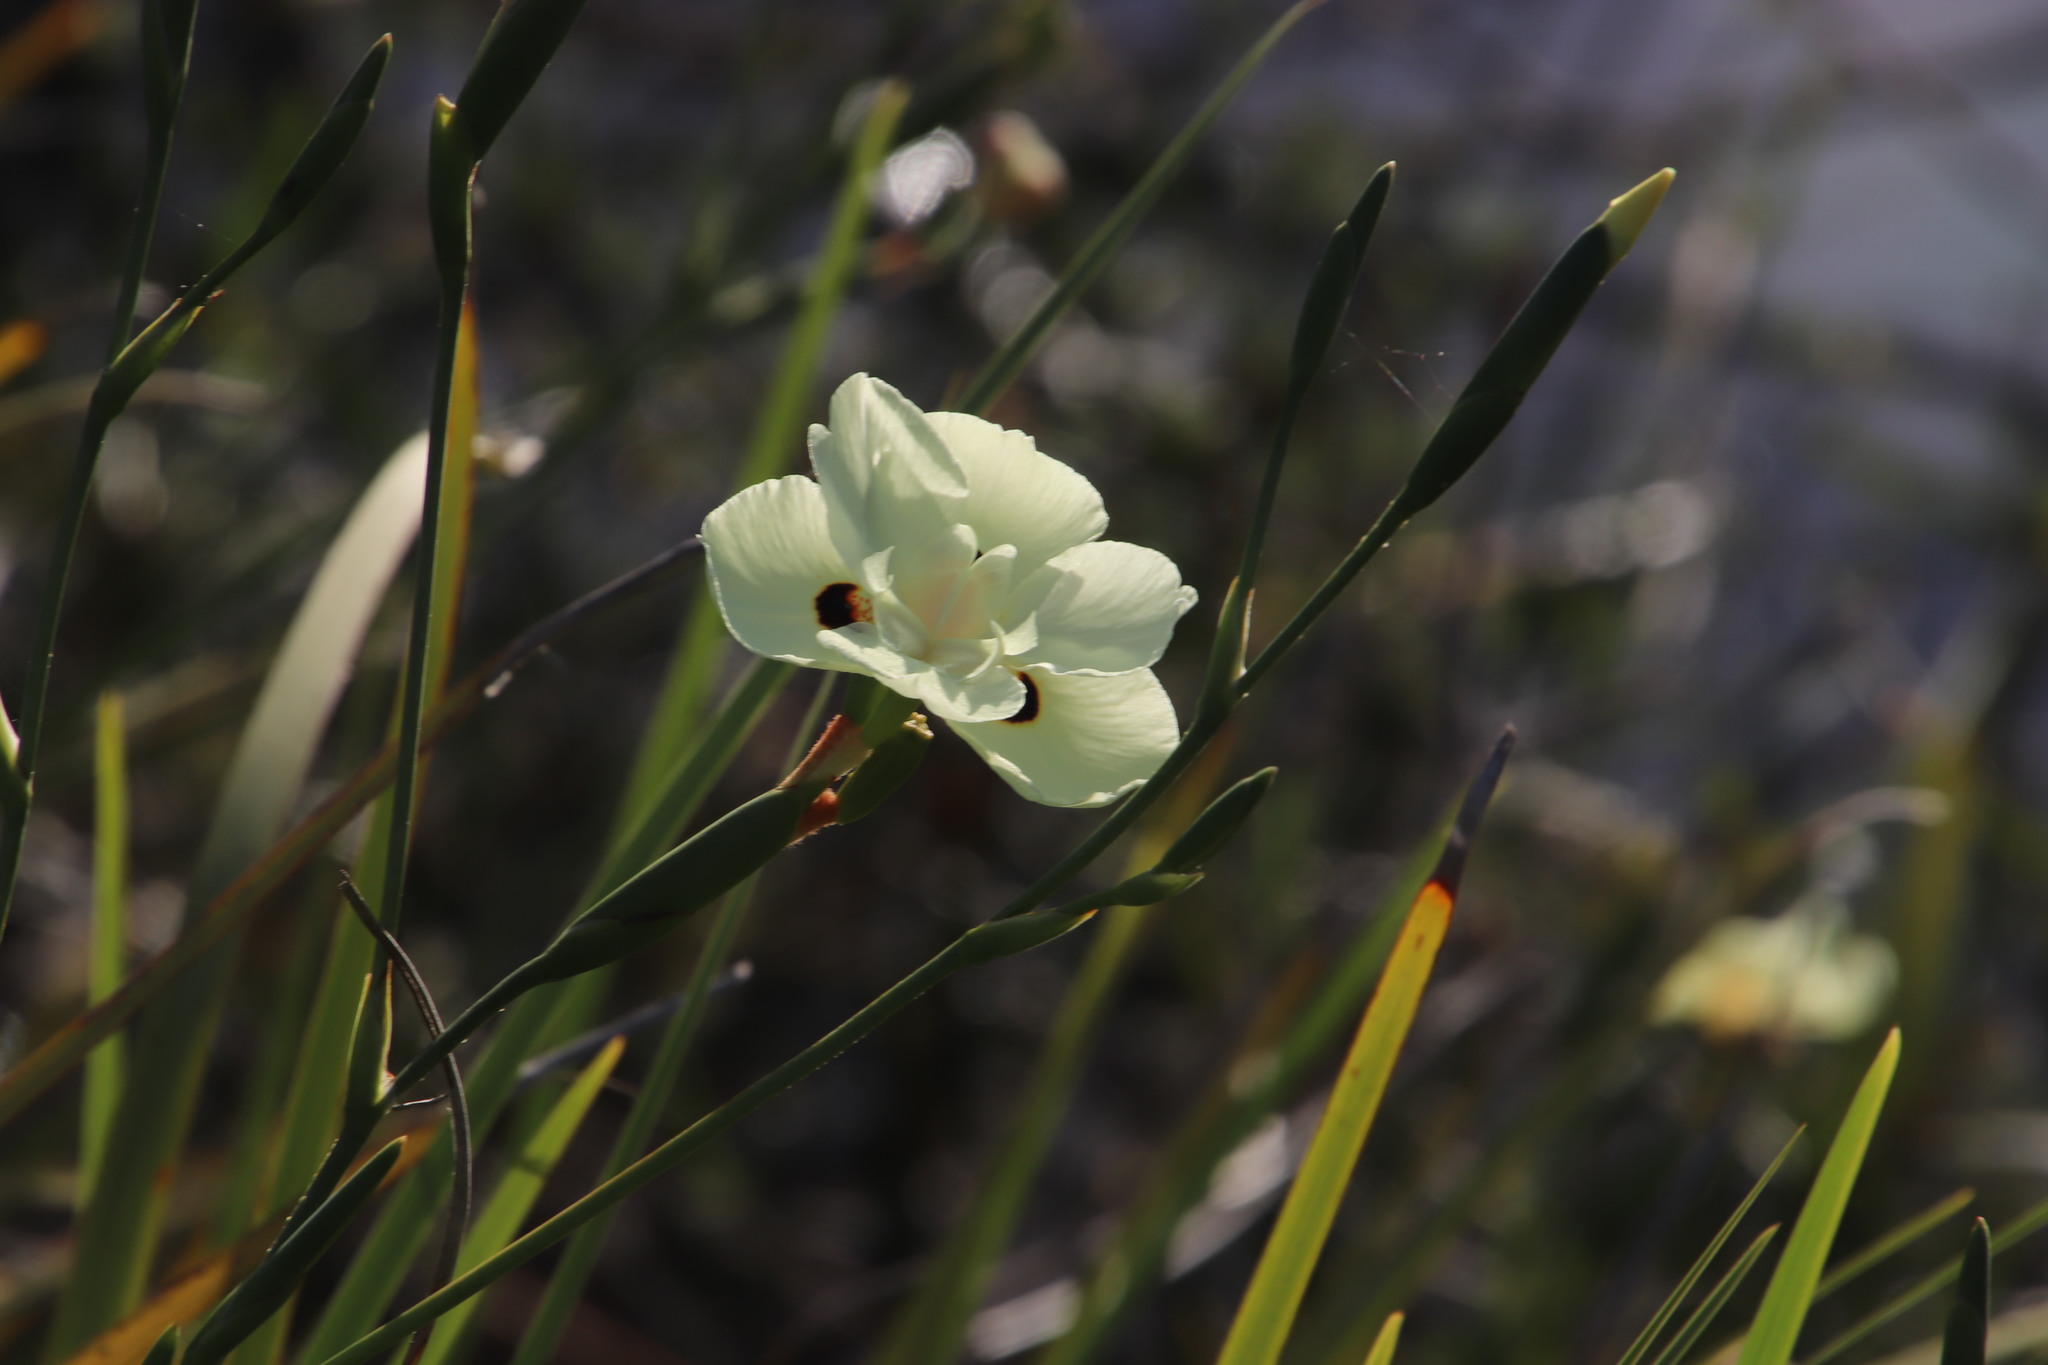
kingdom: Plantae
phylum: Tracheophyta
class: Liliopsida
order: Asparagales
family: Iridaceae
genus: Dietes
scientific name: Dietes bicolor
